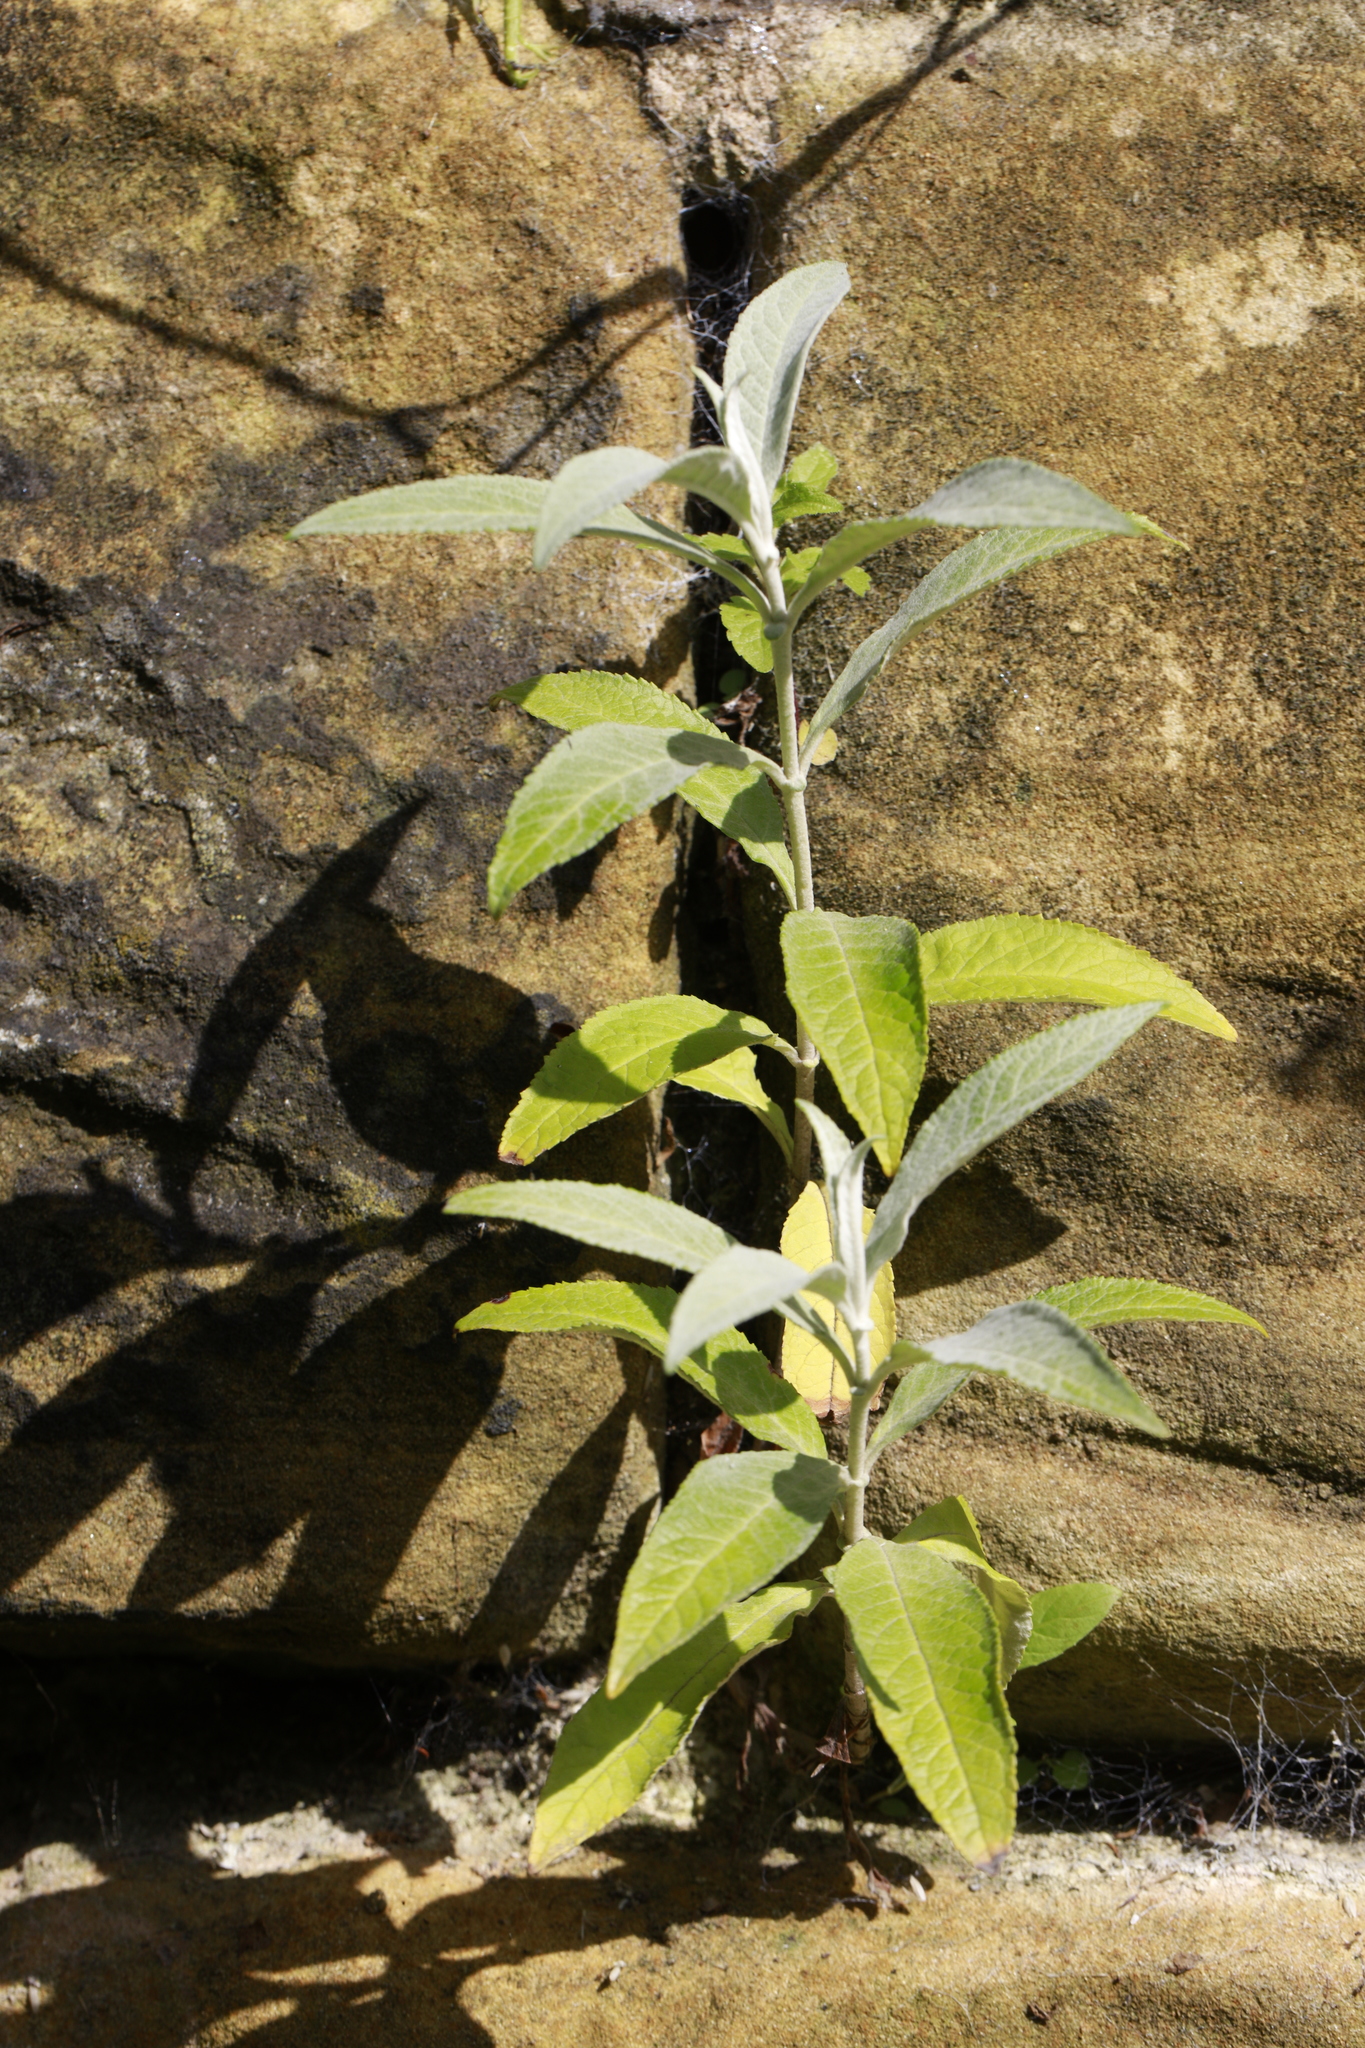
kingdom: Plantae
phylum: Tracheophyta
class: Magnoliopsida
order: Lamiales
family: Scrophulariaceae
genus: Buddleja
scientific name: Buddleja davidii
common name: Butterfly-bush
